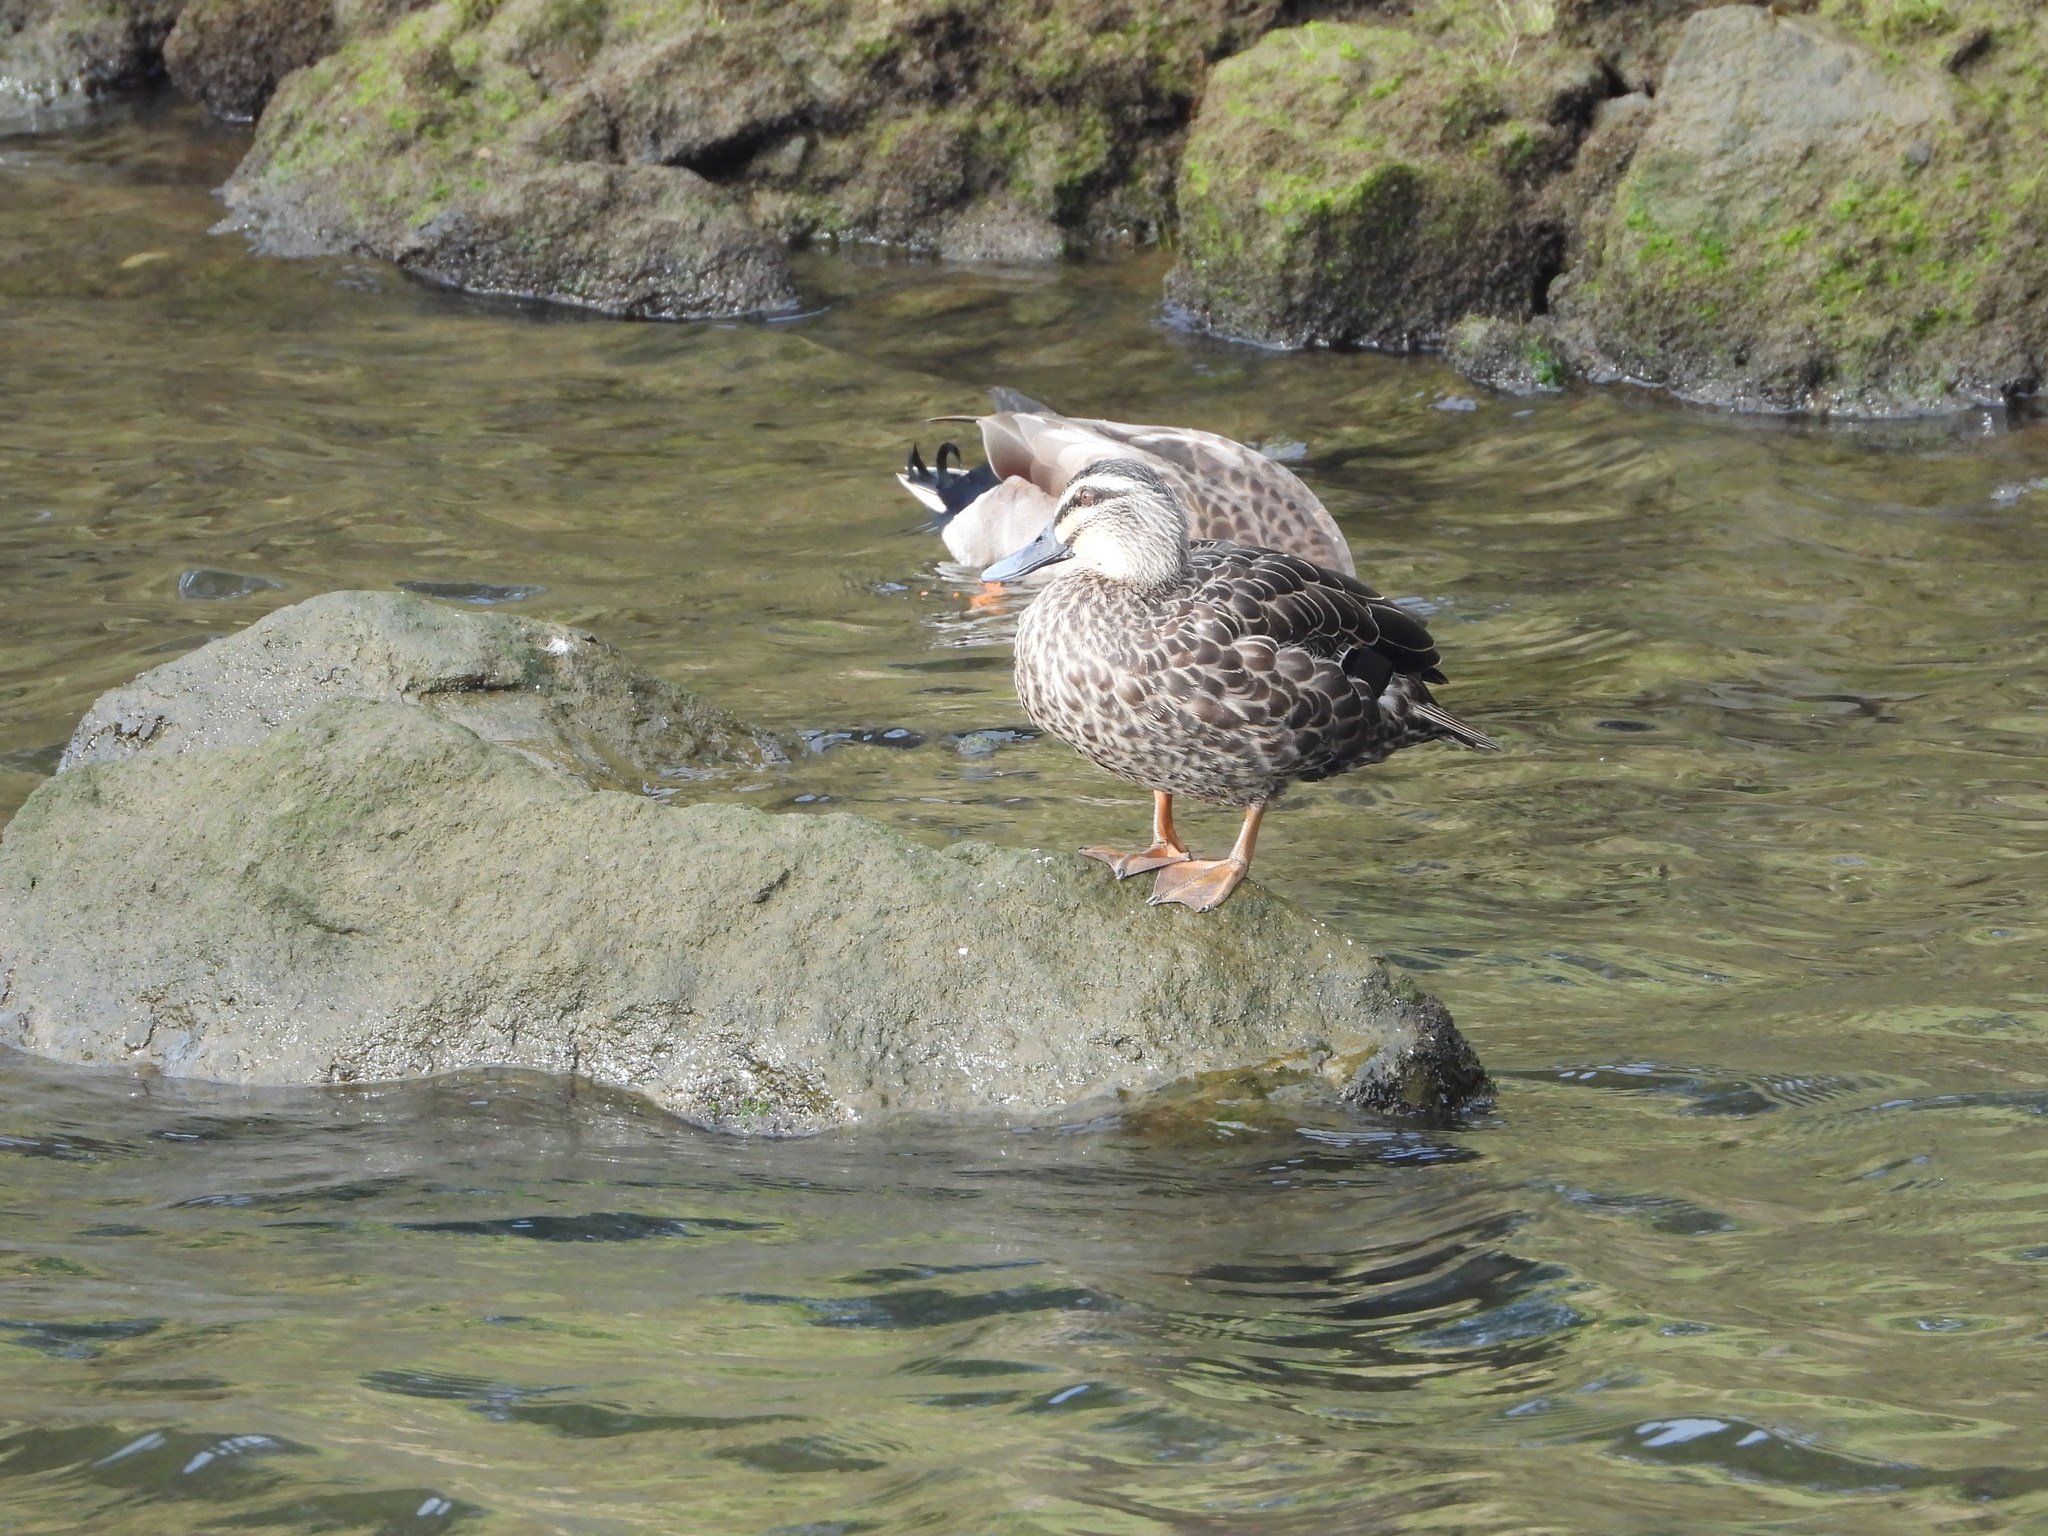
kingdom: Animalia
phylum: Chordata
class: Aves
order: Anseriformes
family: Anatidae
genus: Anas
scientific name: Anas
